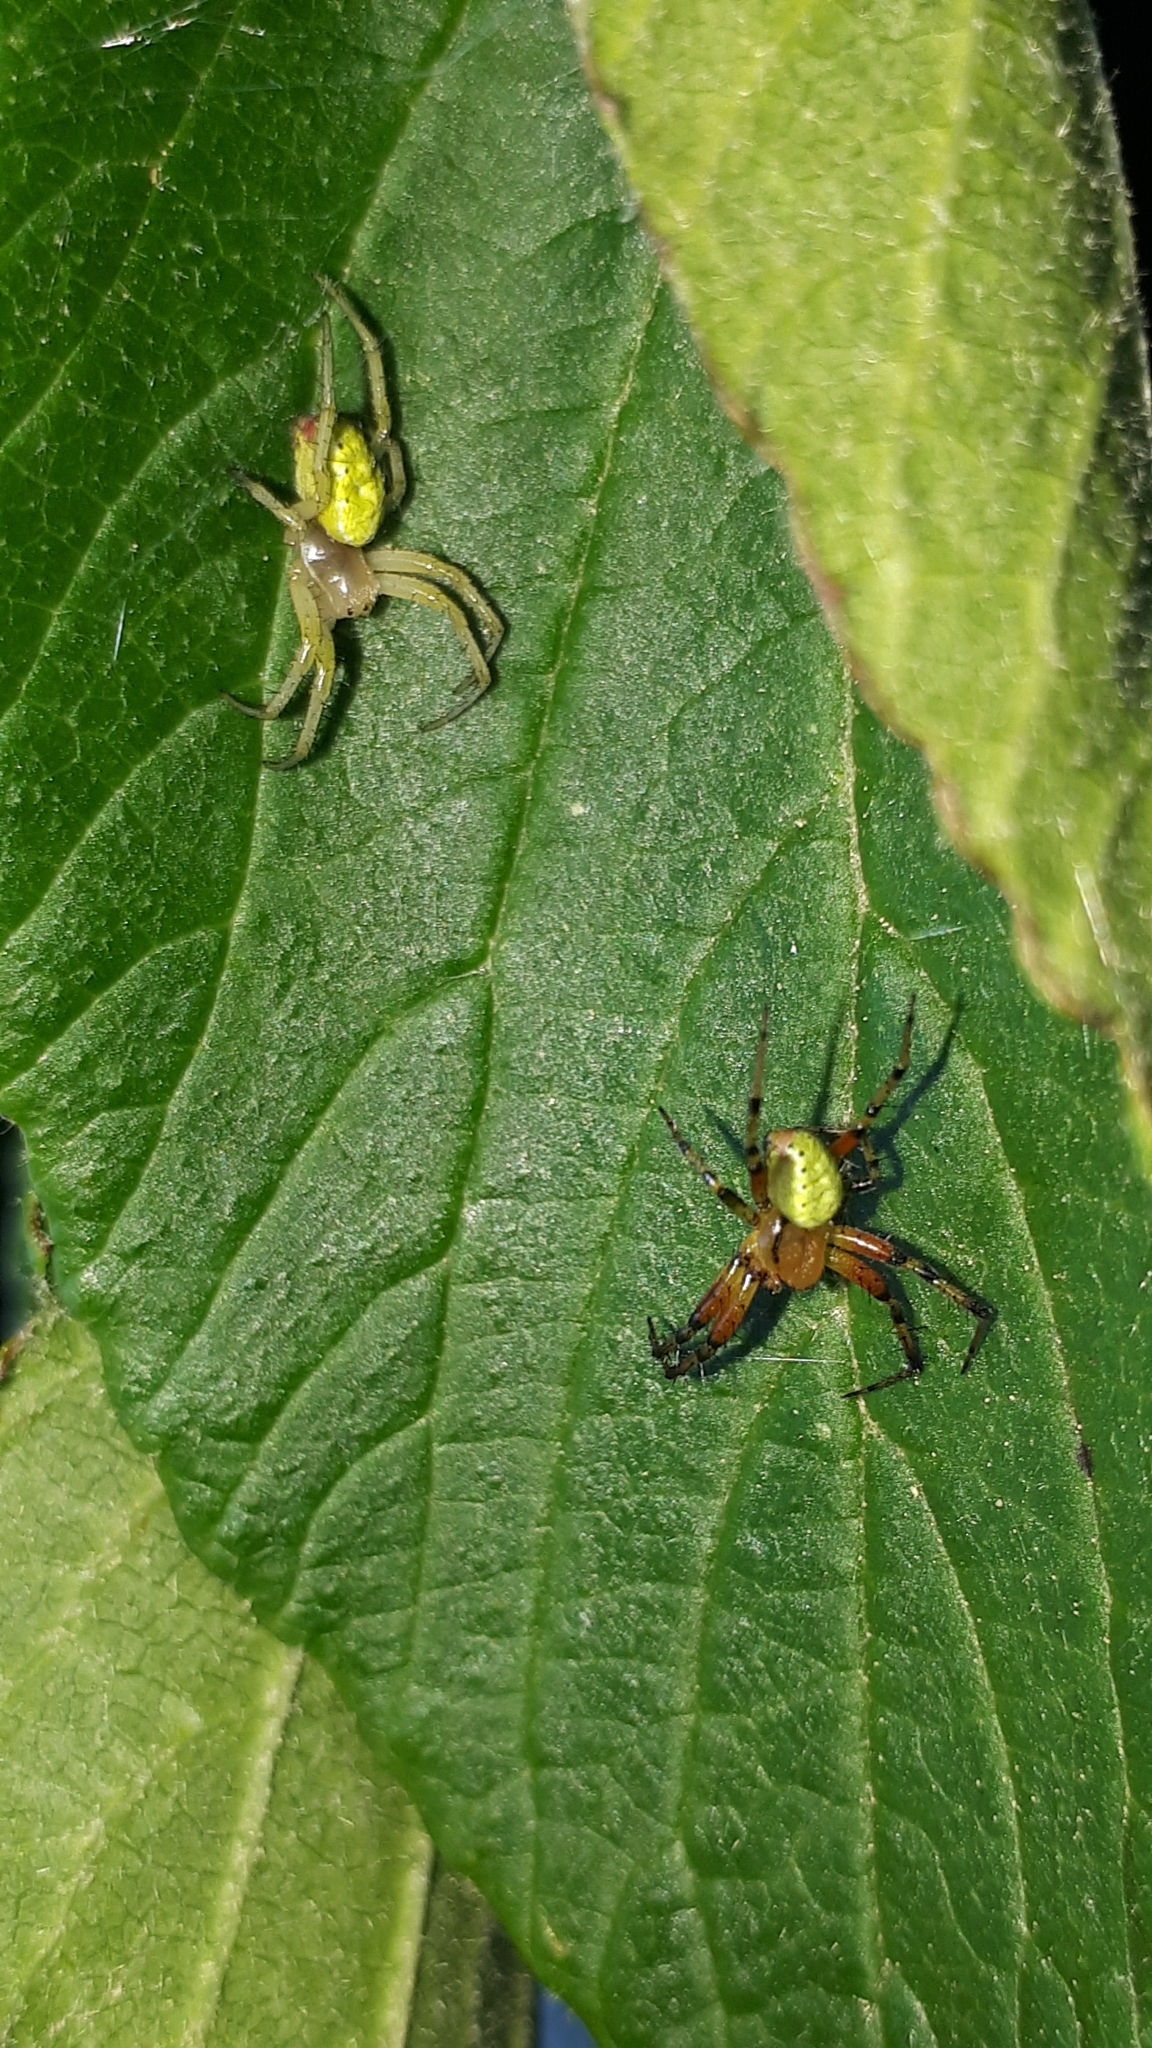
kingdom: Animalia
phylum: Arthropoda
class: Arachnida
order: Araneae
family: Araneidae
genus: Araniella
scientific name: Araniella opisthographa
